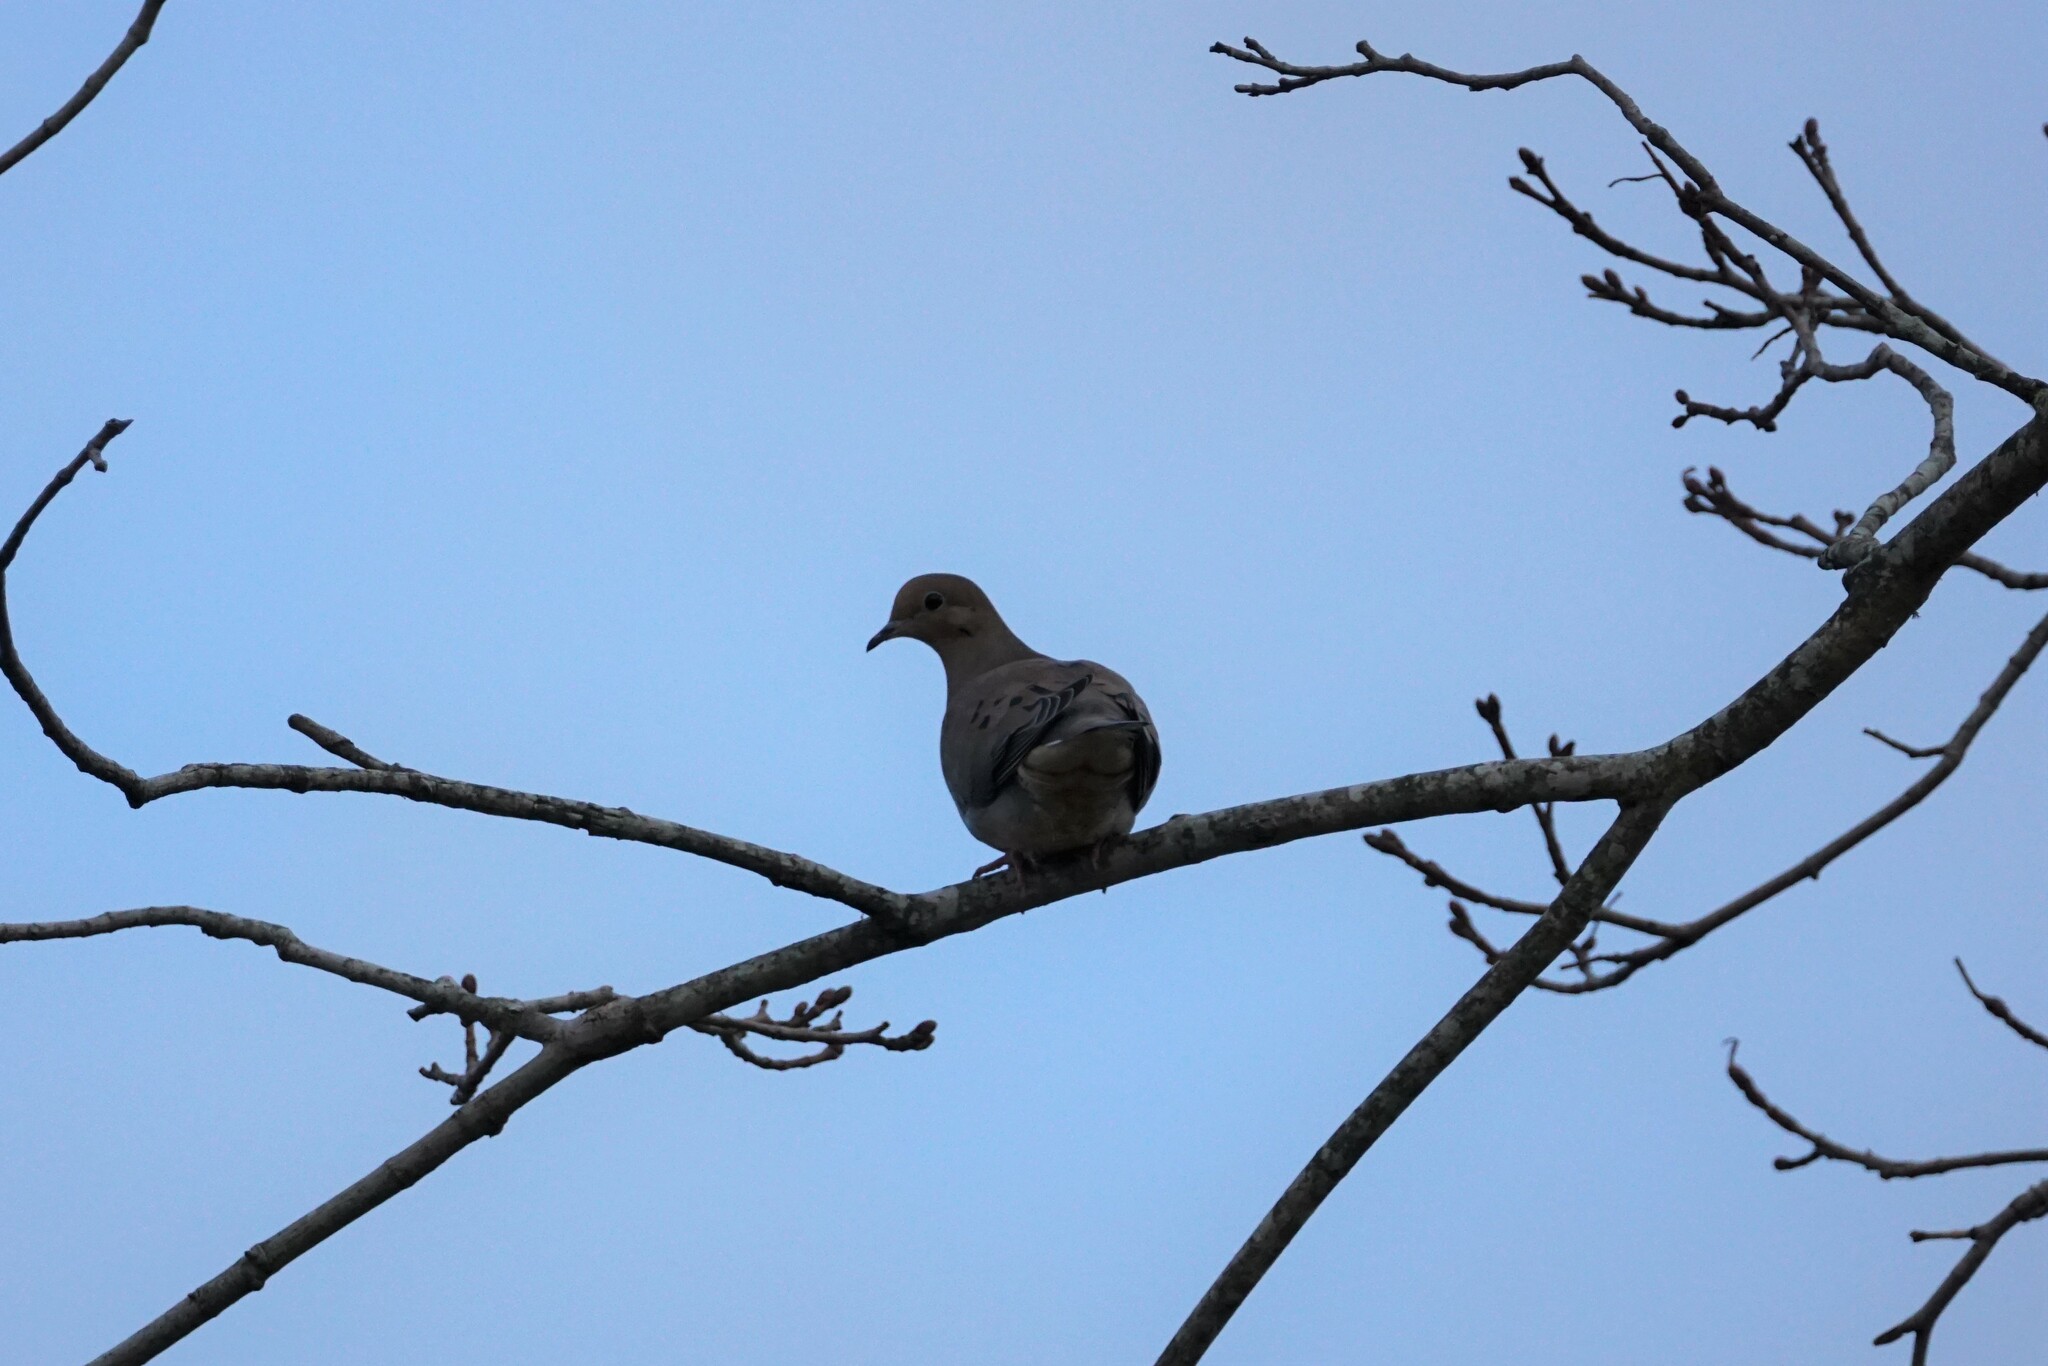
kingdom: Animalia
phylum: Chordata
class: Aves
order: Columbiformes
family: Columbidae
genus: Zenaida
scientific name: Zenaida macroura
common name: Mourning dove
